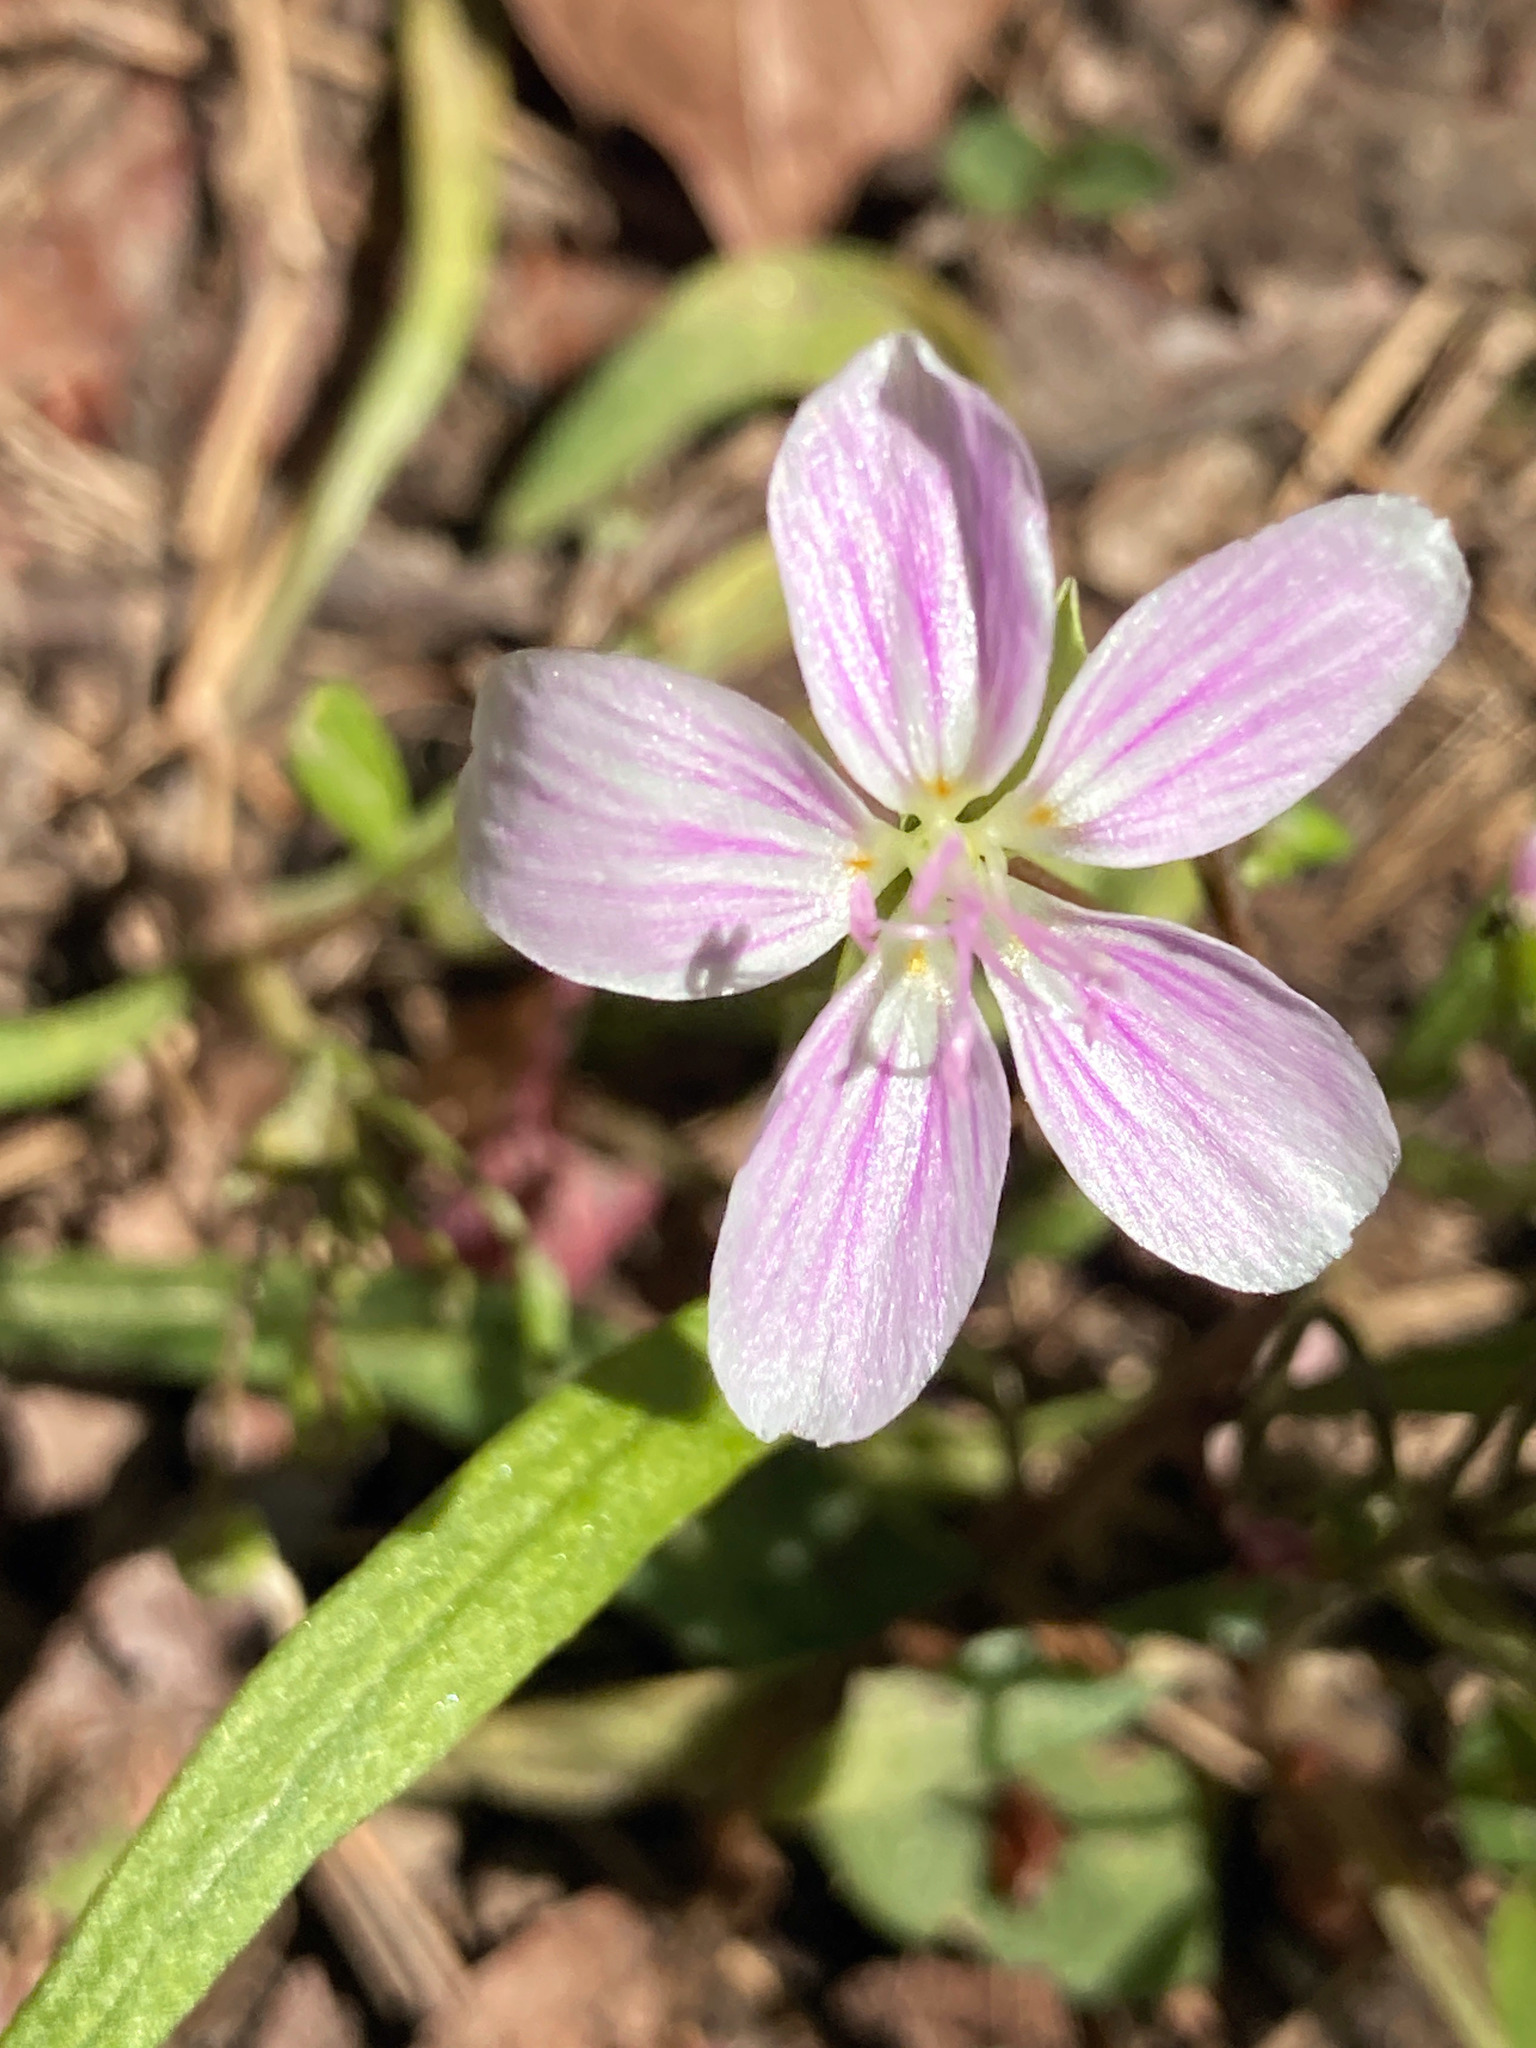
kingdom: Plantae
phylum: Tracheophyta
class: Magnoliopsida
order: Caryophyllales
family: Montiaceae
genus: Claytonia
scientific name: Claytonia virginica
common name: Virginia springbeauty
